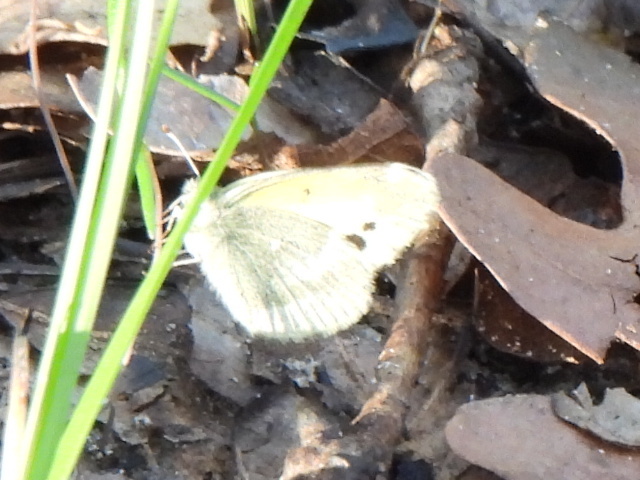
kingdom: Animalia
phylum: Arthropoda
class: Insecta
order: Lepidoptera
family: Pieridae
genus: Nathalis
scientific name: Nathalis iole
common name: Dainty sulphur
